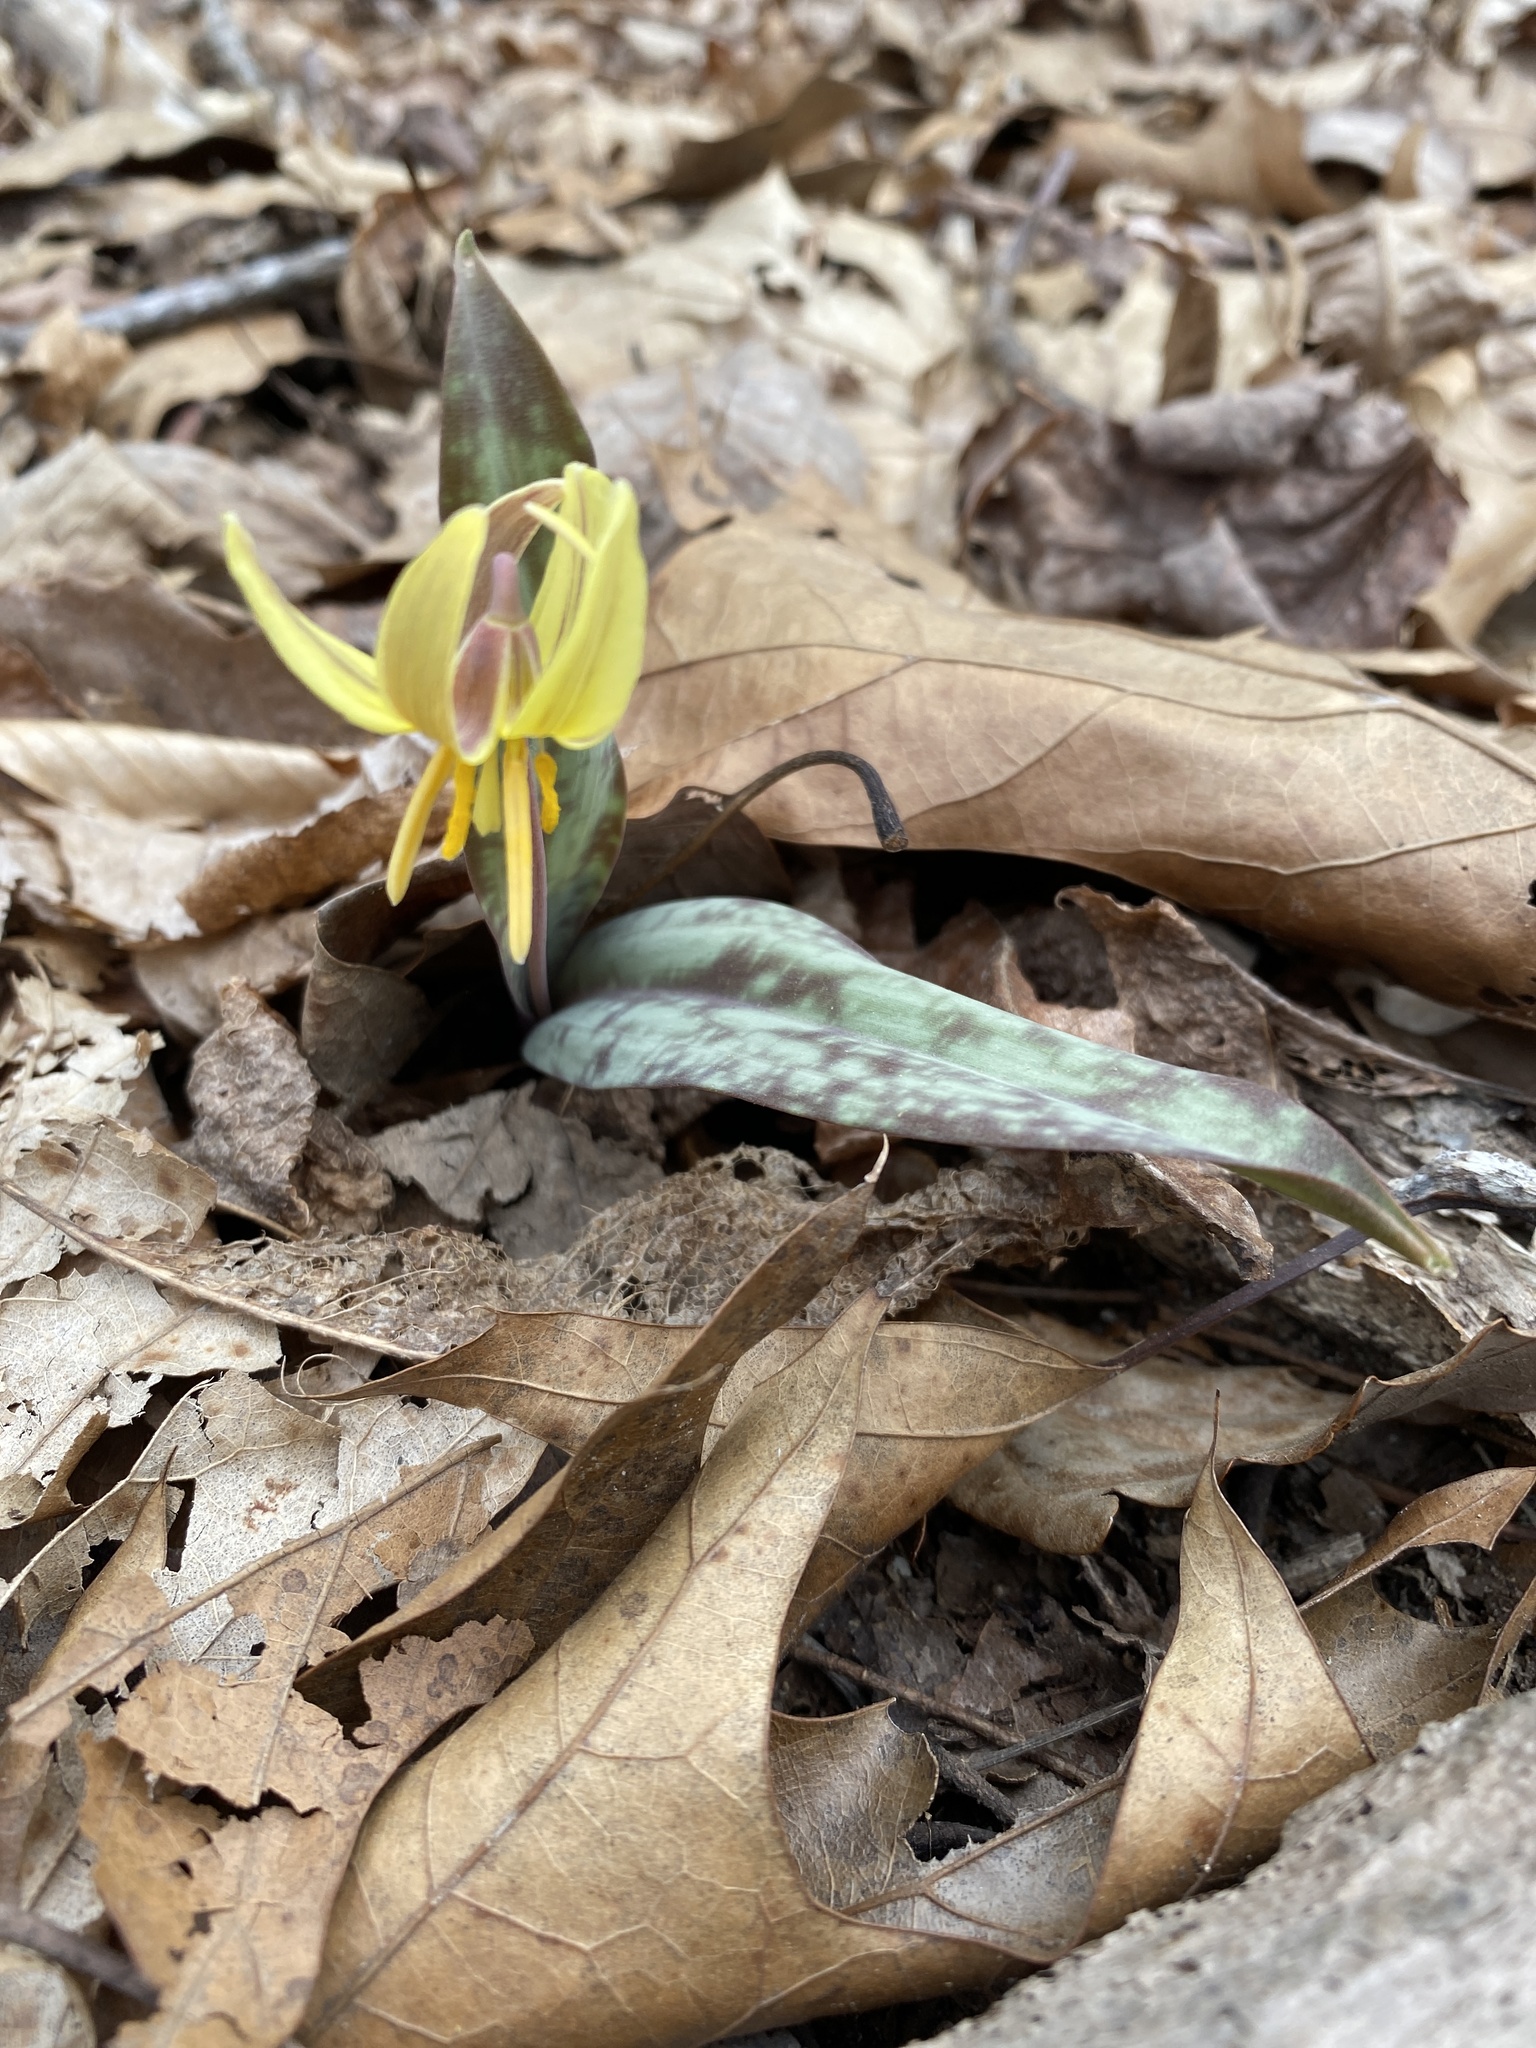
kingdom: Plantae
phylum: Tracheophyta
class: Liliopsida
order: Liliales
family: Liliaceae
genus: Erythronium
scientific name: Erythronium umbilicatum
